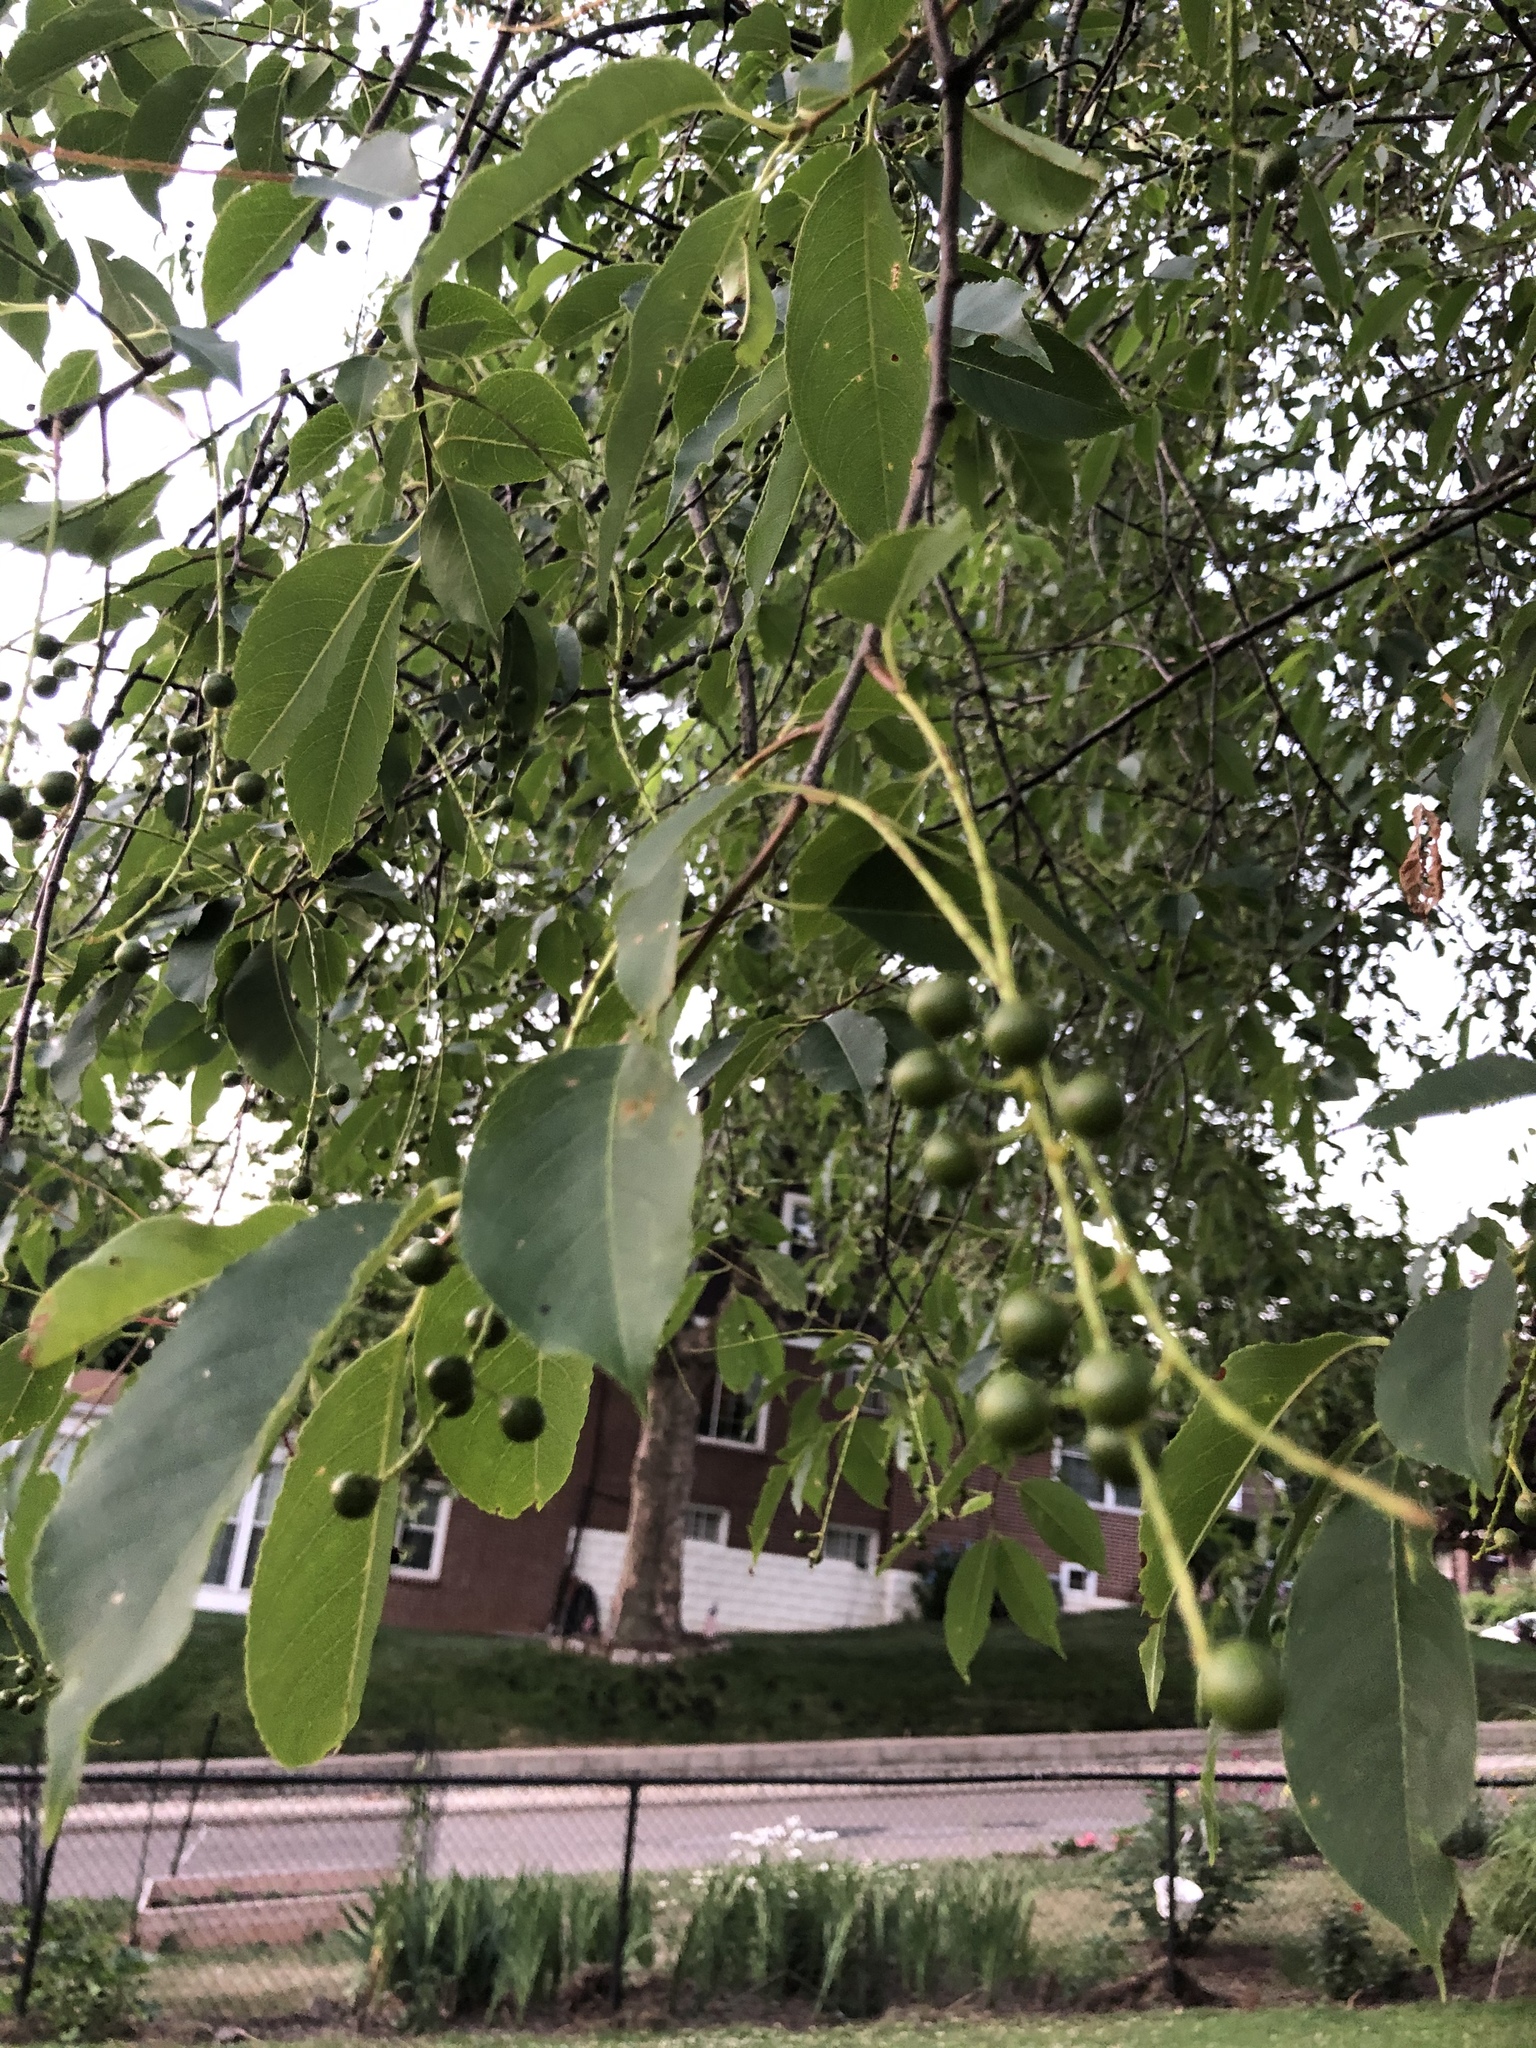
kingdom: Plantae
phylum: Tracheophyta
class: Magnoliopsida
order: Rosales
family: Rosaceae
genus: Prunus
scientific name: Prunus serotina
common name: Black cherry
